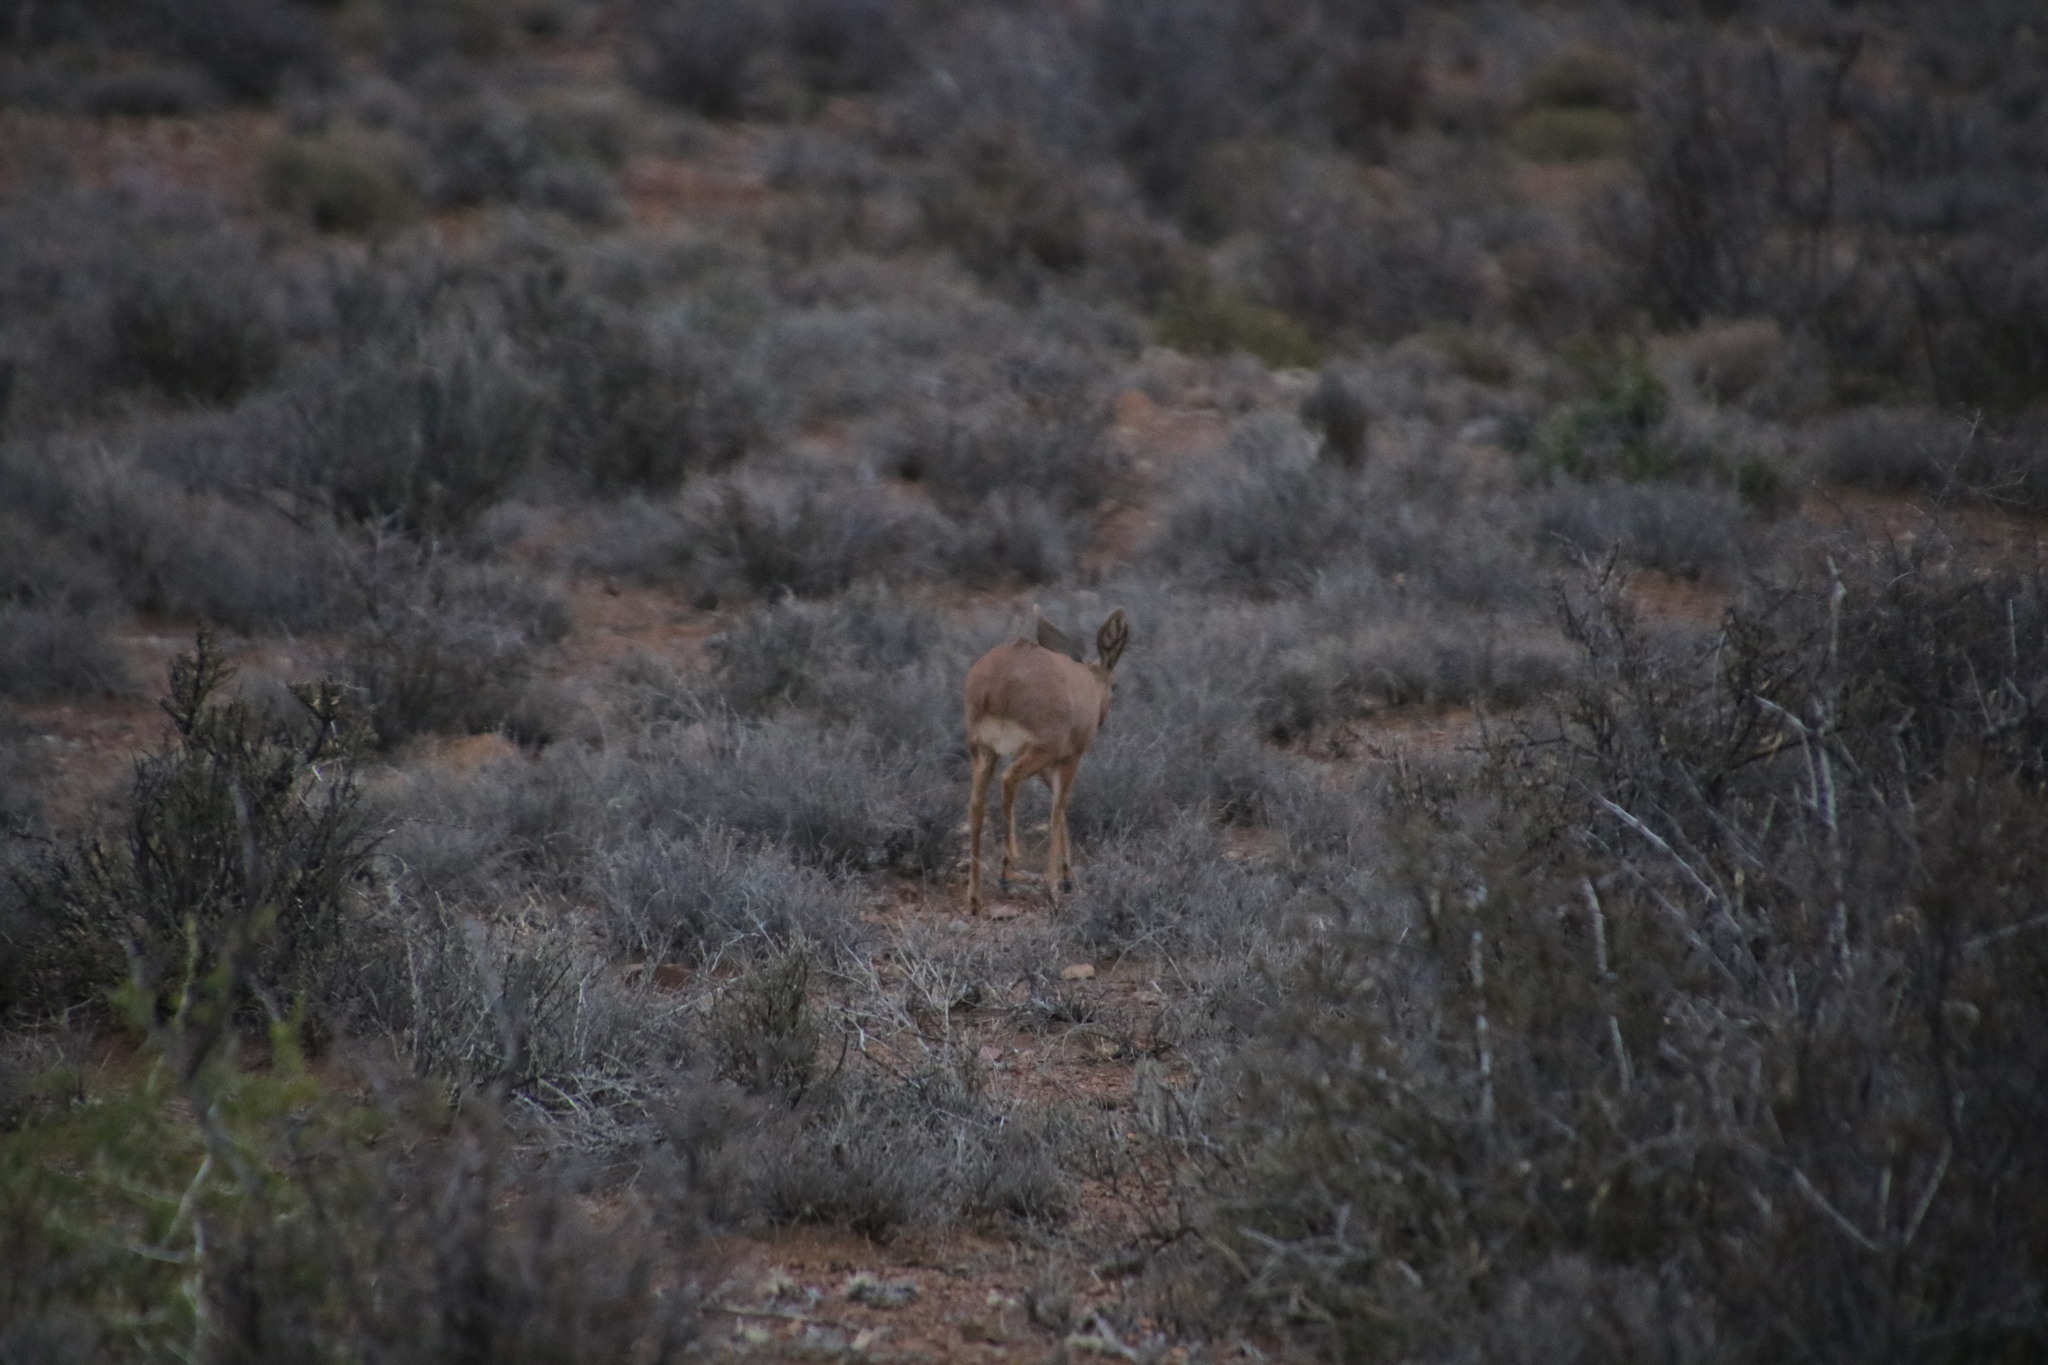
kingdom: Animalia
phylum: Chordata
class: Mammalia
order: Artiodactyla
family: Bovidae
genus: Raphicerus
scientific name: Raphicerus campestris
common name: Steenbok
